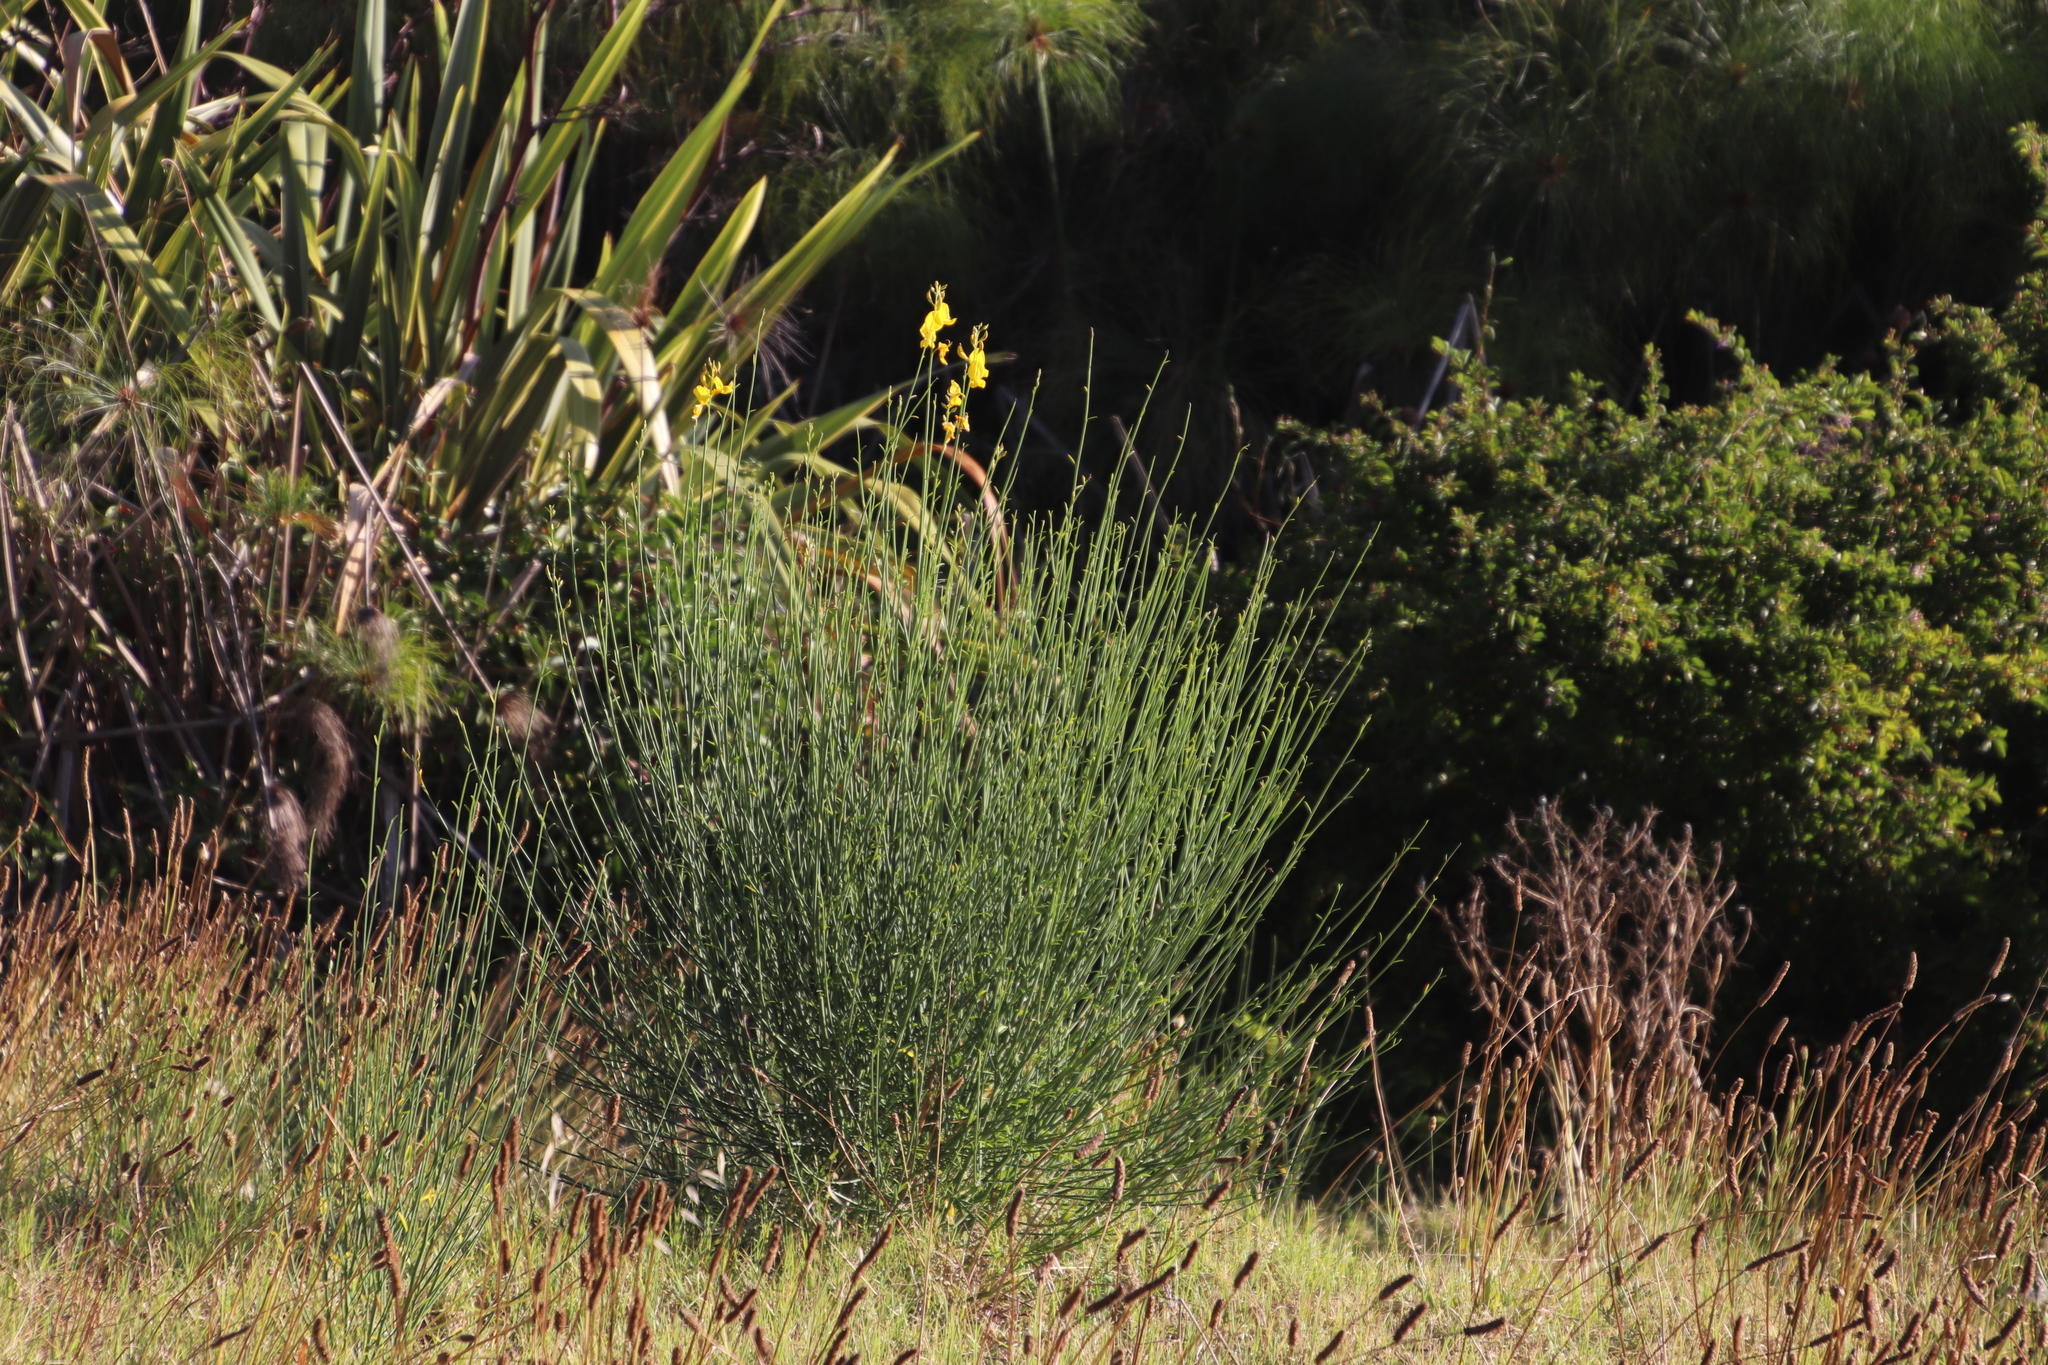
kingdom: Plantae
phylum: Tracheophyta
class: Magnoliopsida
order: Fabales
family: Fabaceae
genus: Spartium
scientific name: Spartium junceum
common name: Spanish broom
